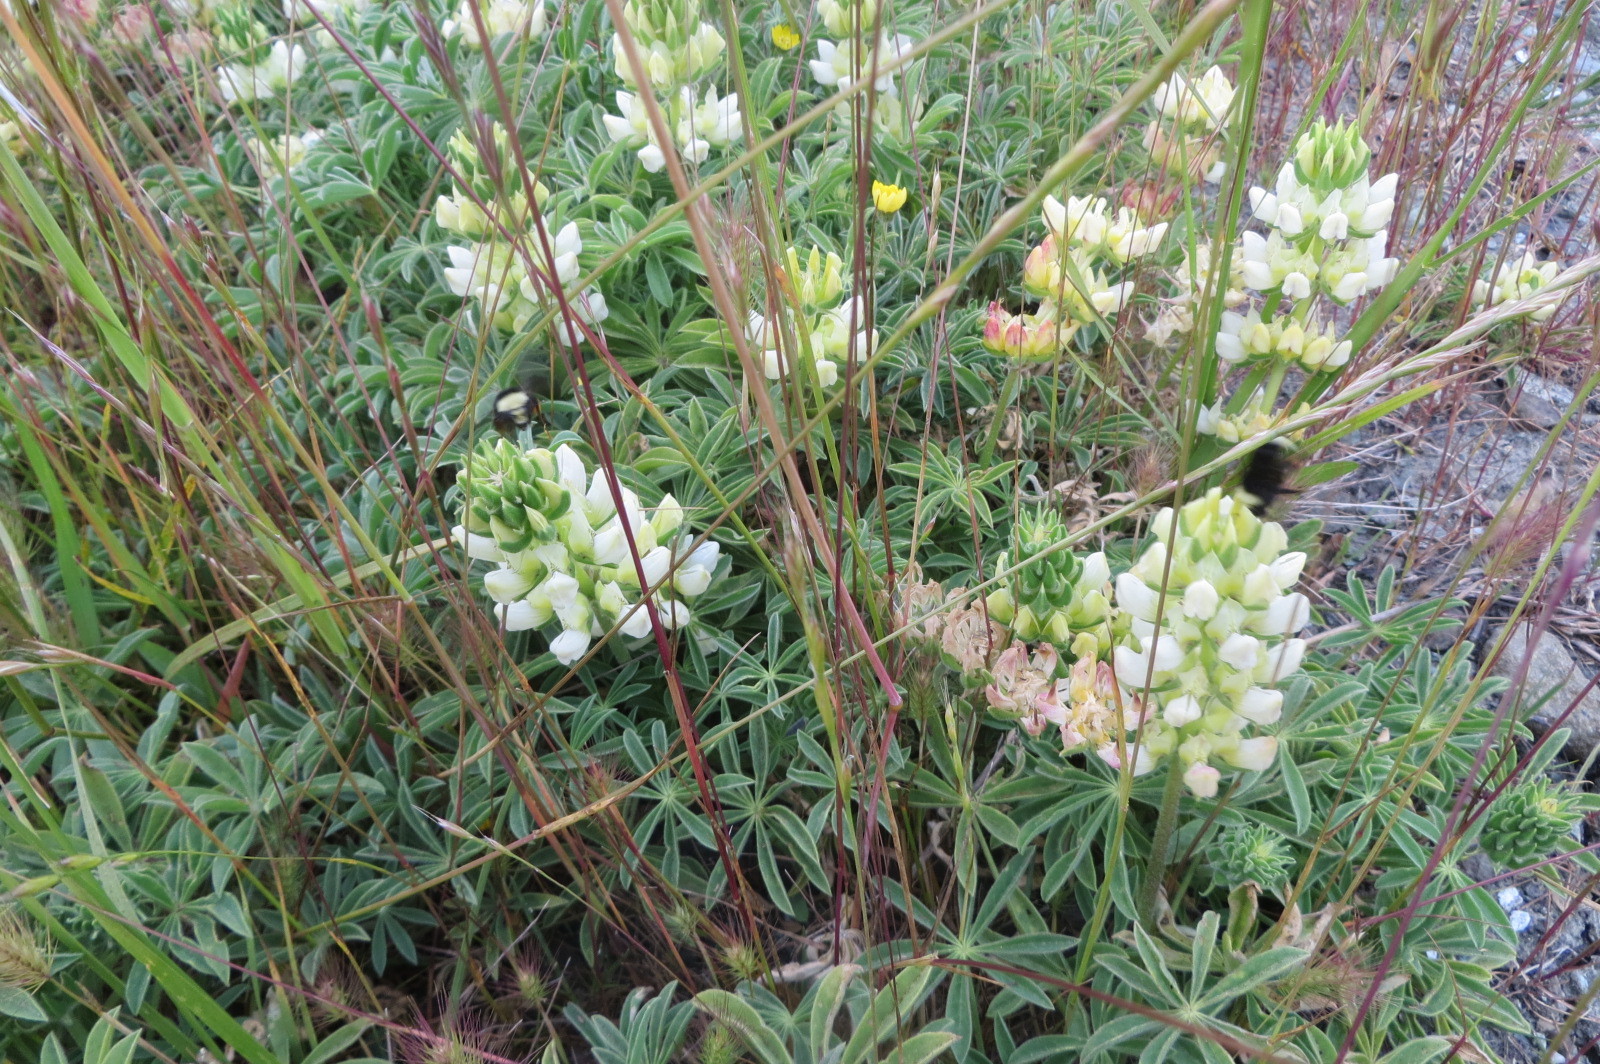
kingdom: Plantae
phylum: Tracheophyta
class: Magnoliopsida
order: Fabales
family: Fabaceae
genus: Lupinus
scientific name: Lupinus microcarpus
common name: Chick lupine
